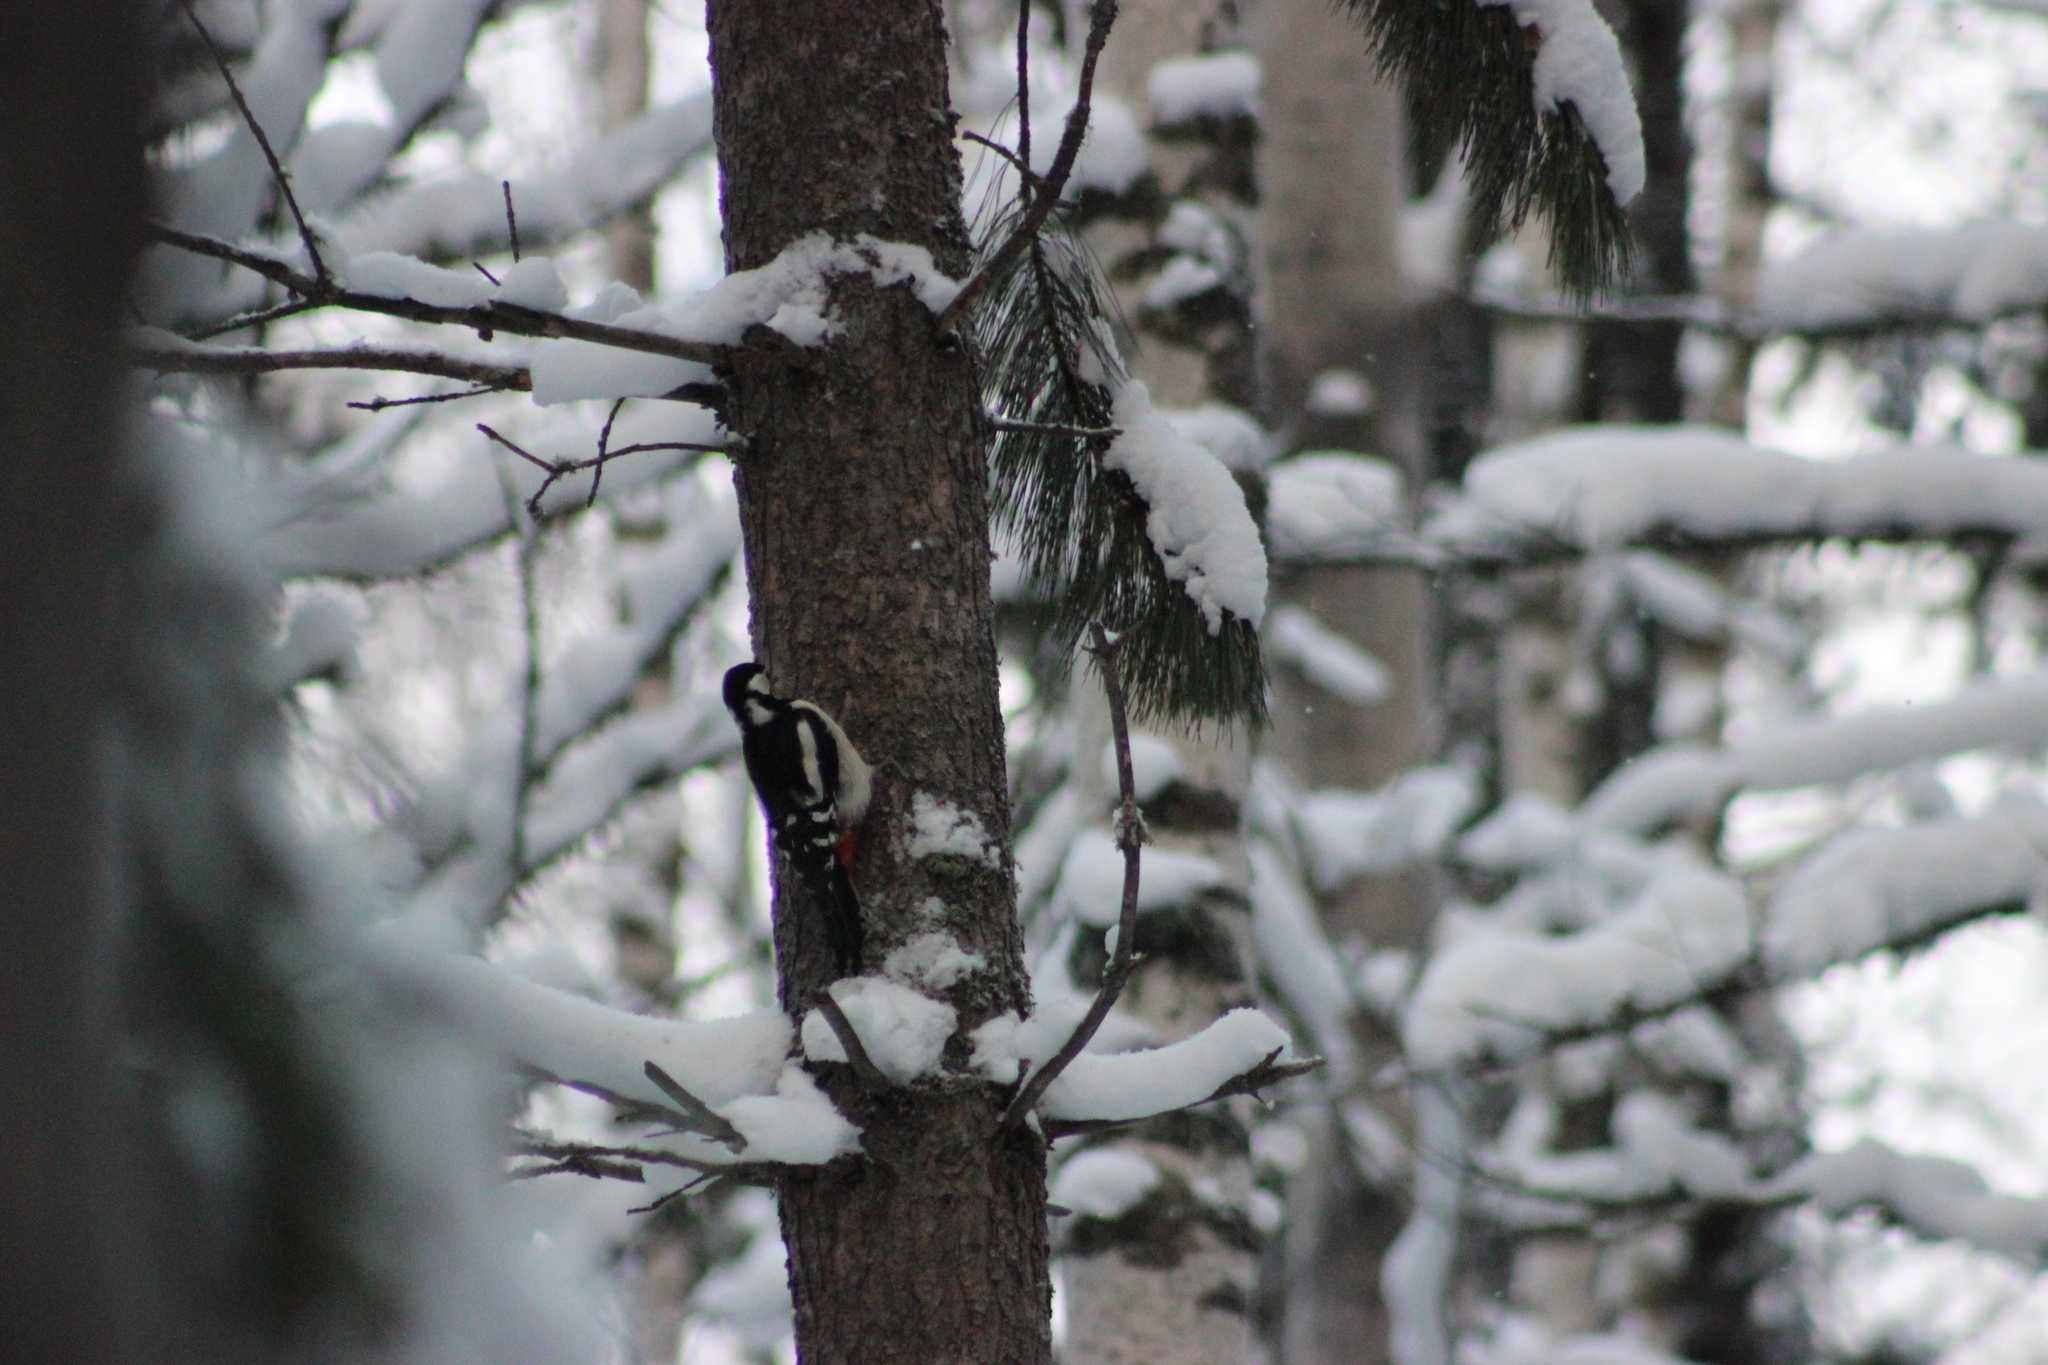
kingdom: Animalia
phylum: Chordata
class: Aves
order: Piciformes
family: Picidae
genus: Dendrocopos
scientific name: Dendrocopos major
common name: Great spotted woodpecker
